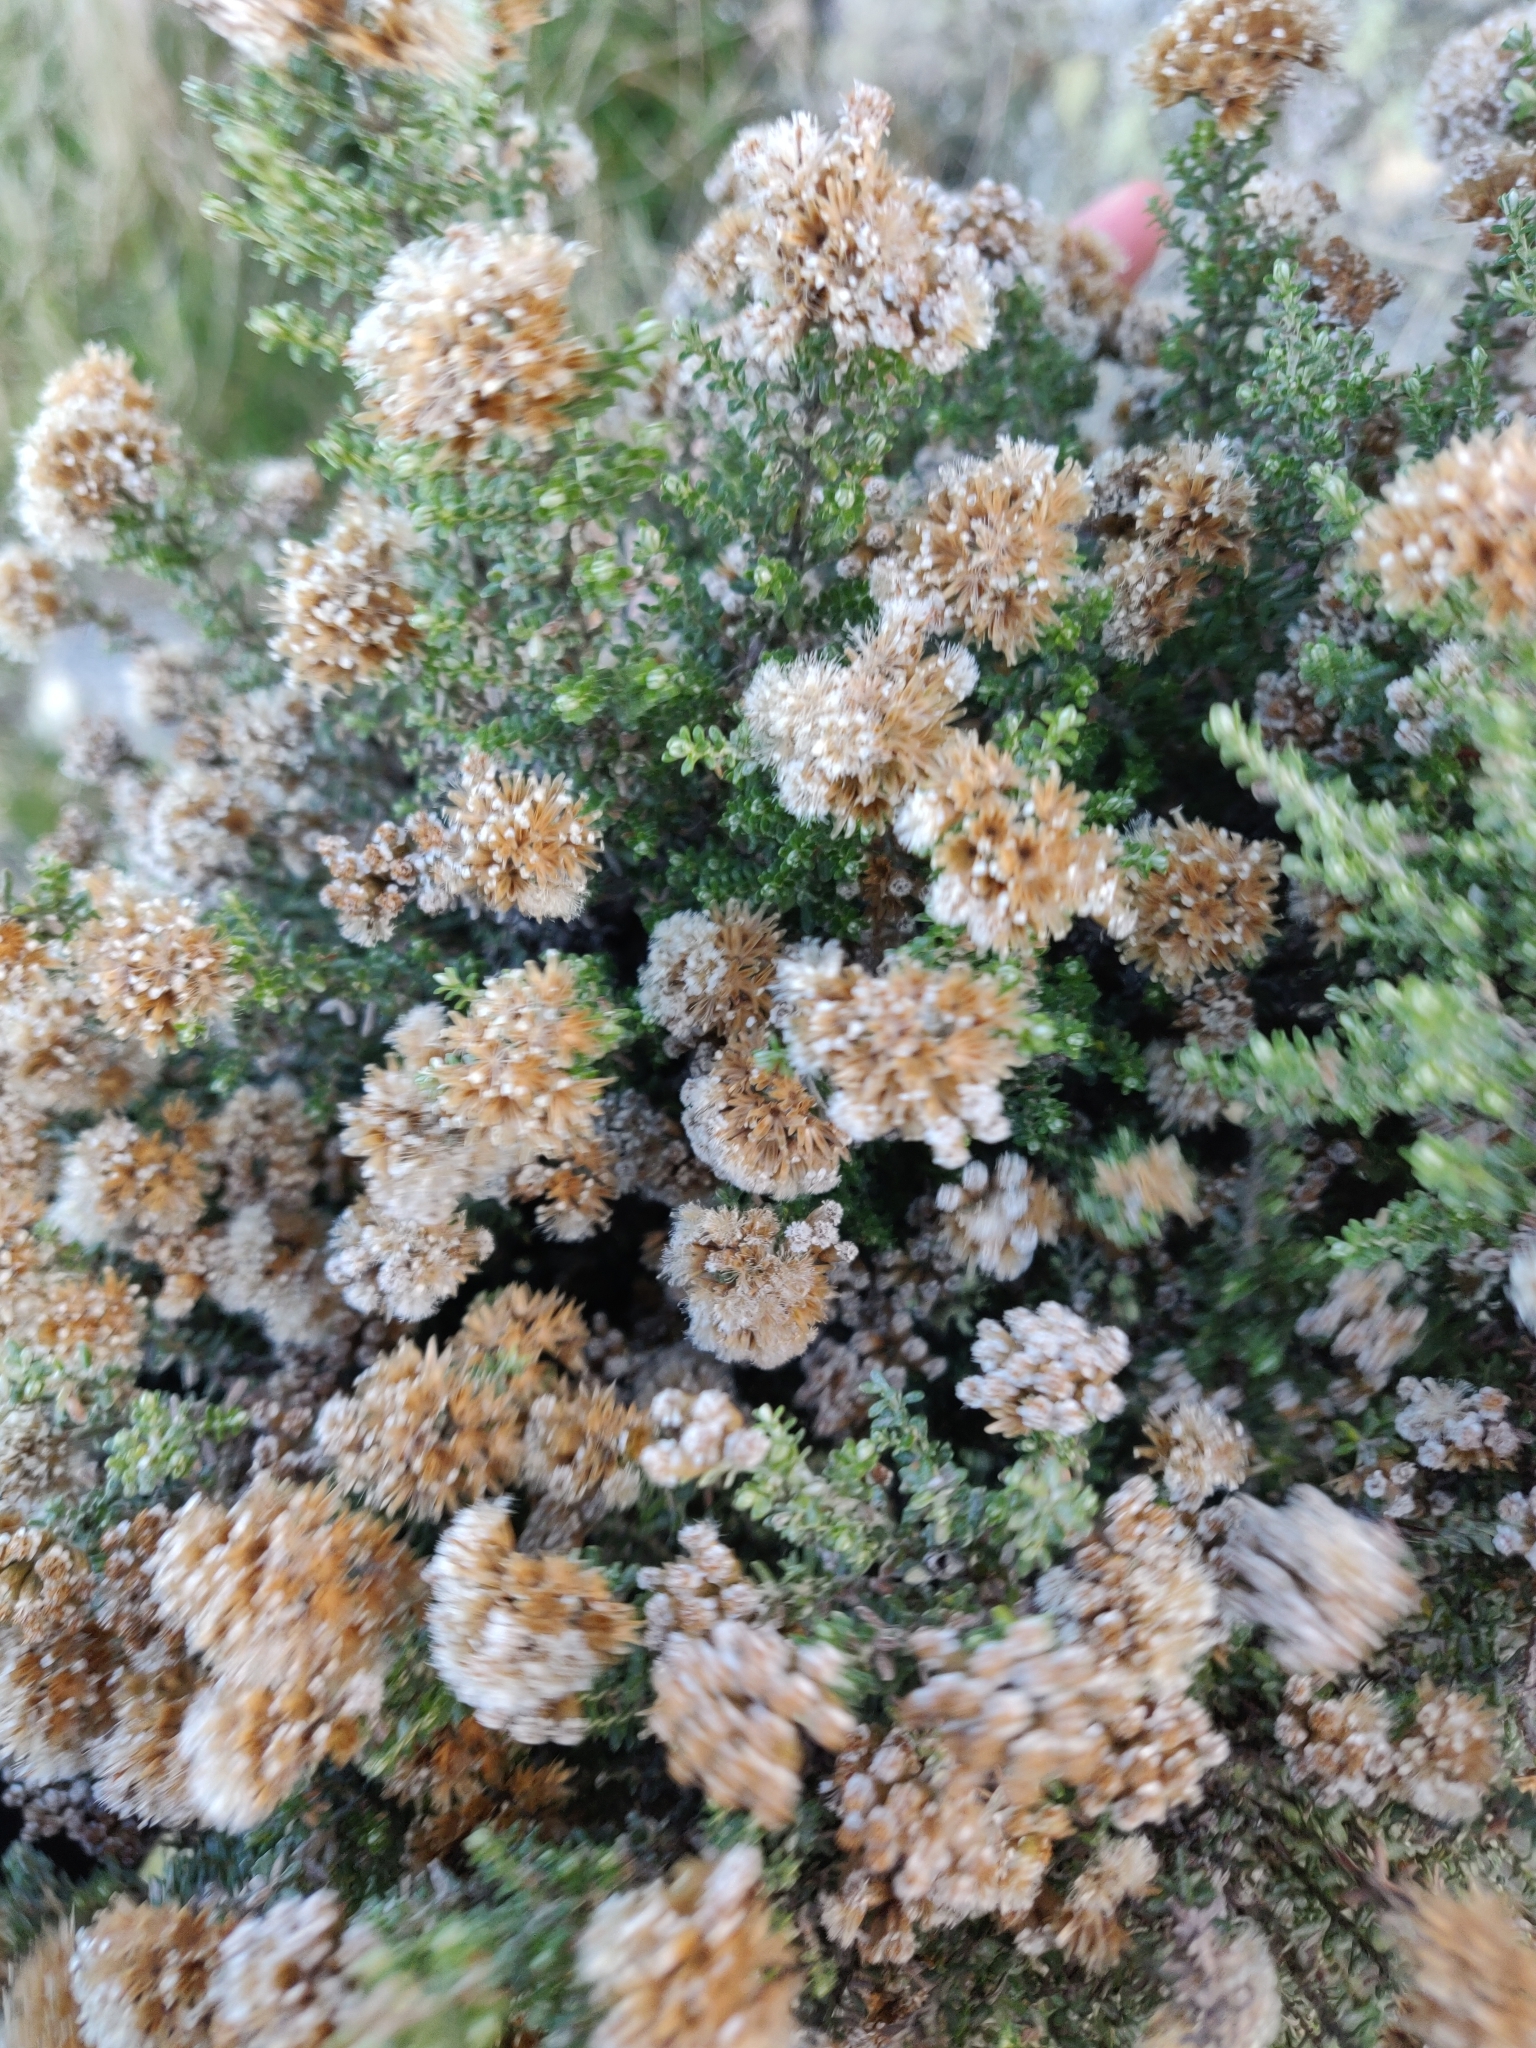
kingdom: Plantae
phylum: Tracheophyta
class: Magnoliopsida
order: Asterales
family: Asteraceae
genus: Ozothamnus
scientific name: Ozothamnus leptophyllus
